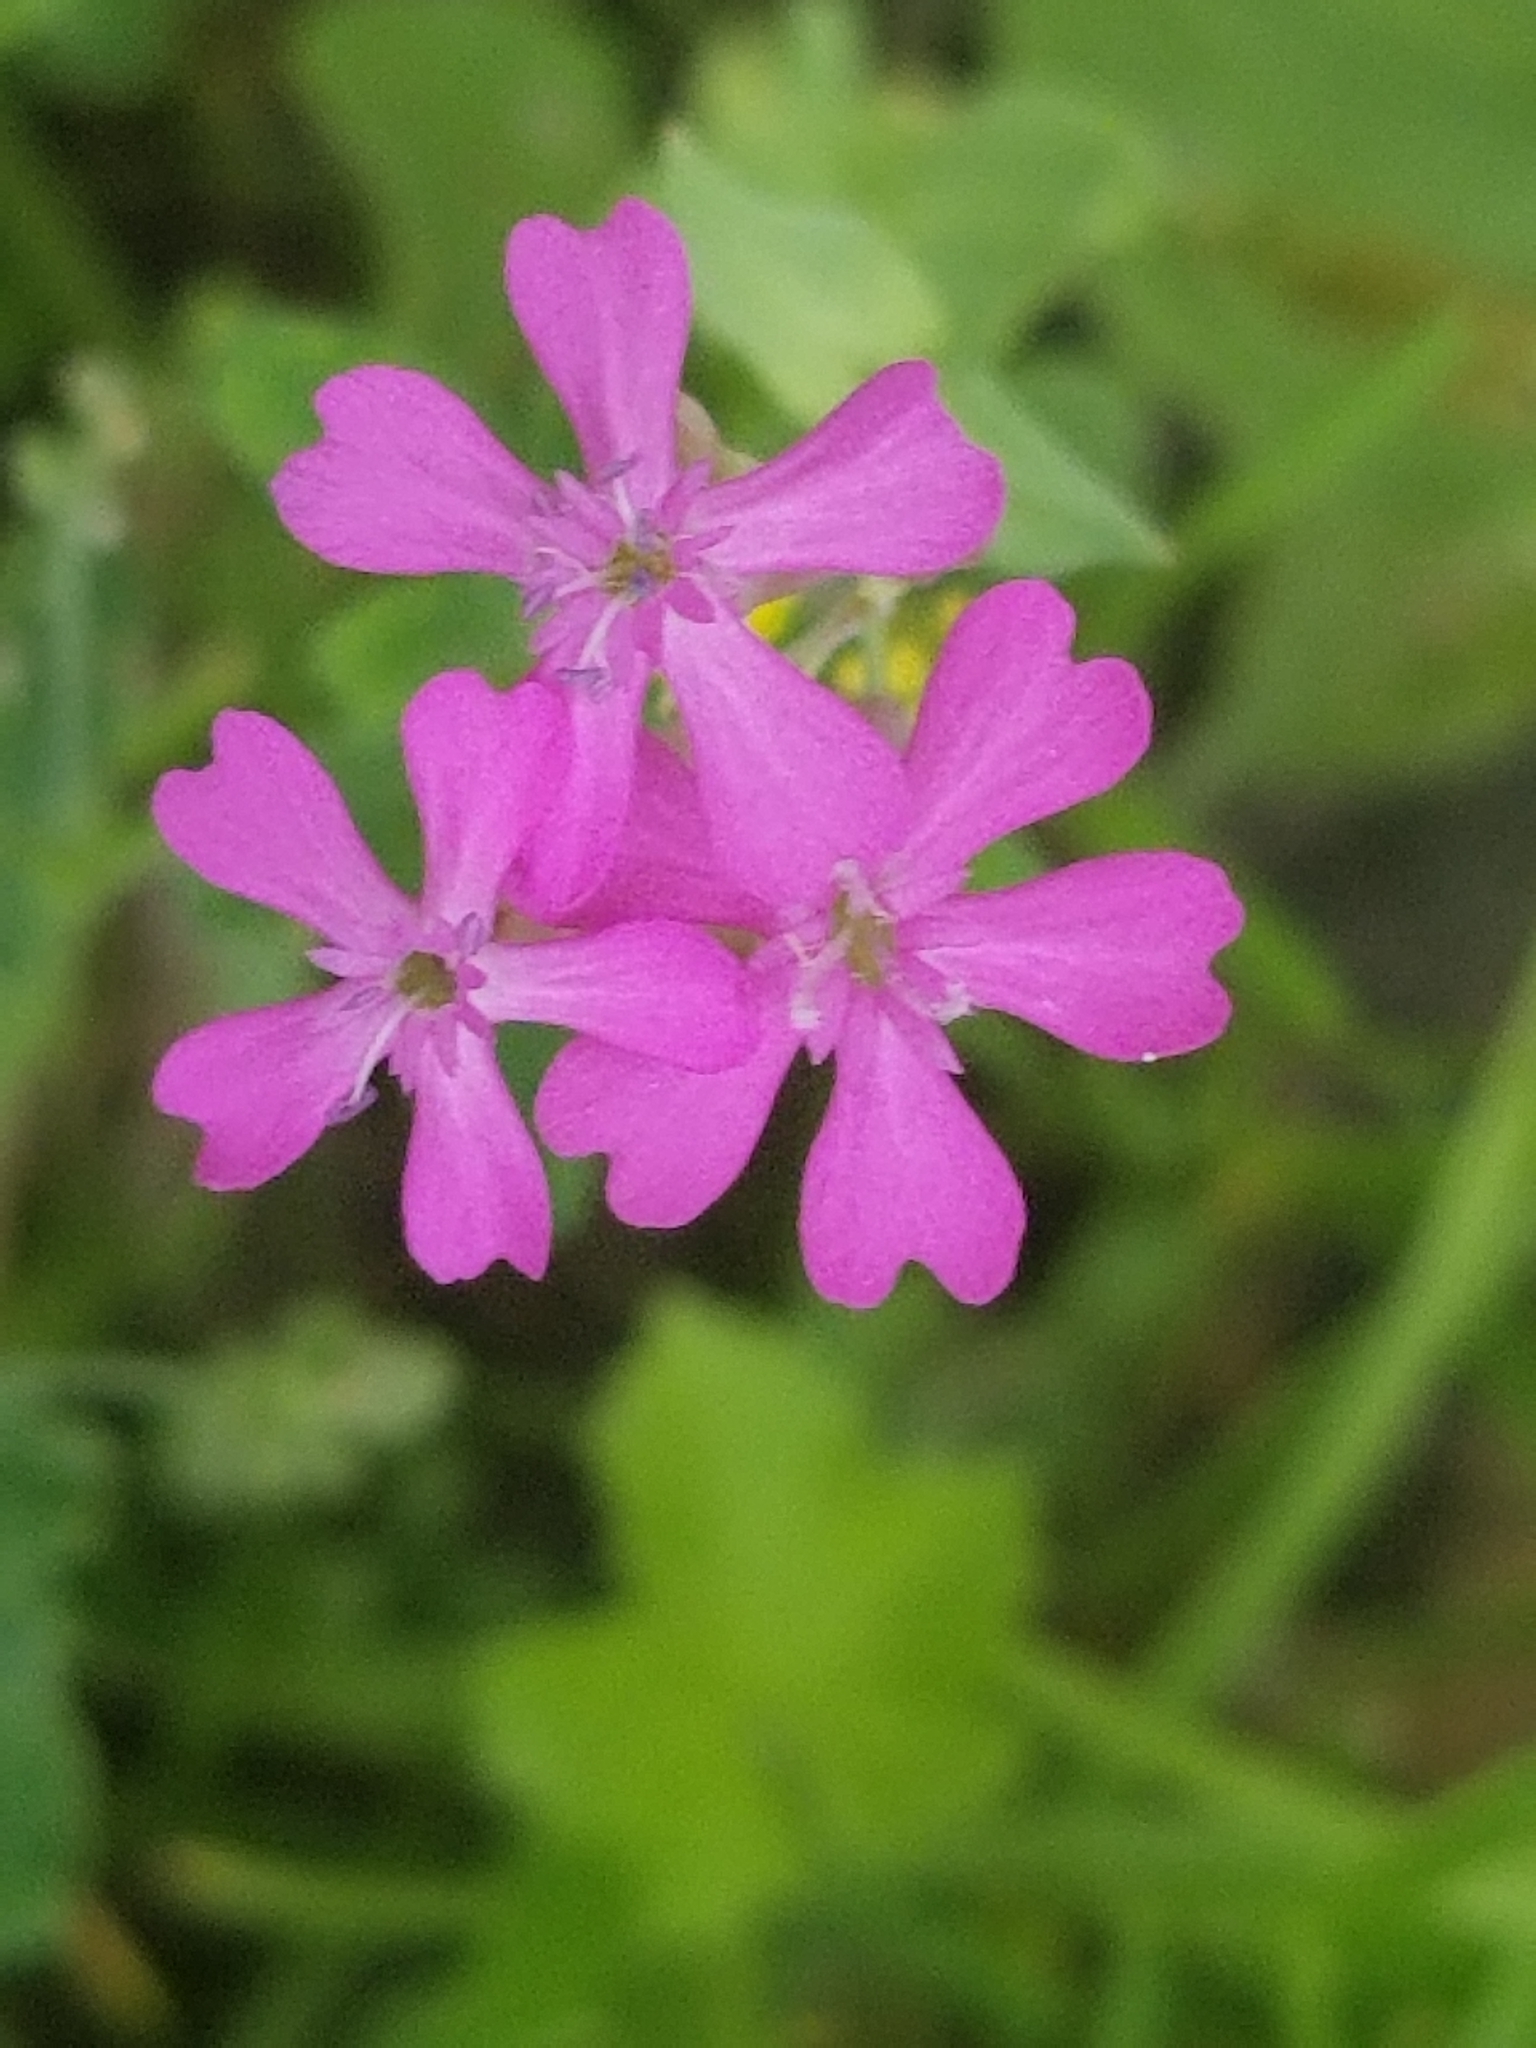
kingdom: Plantae
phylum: Tracheophyta
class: Magnoliopsida
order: Caryophyllales
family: Caryophyllaceae
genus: Atocion
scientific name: Atocion armeria
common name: Sweet william catchfly
